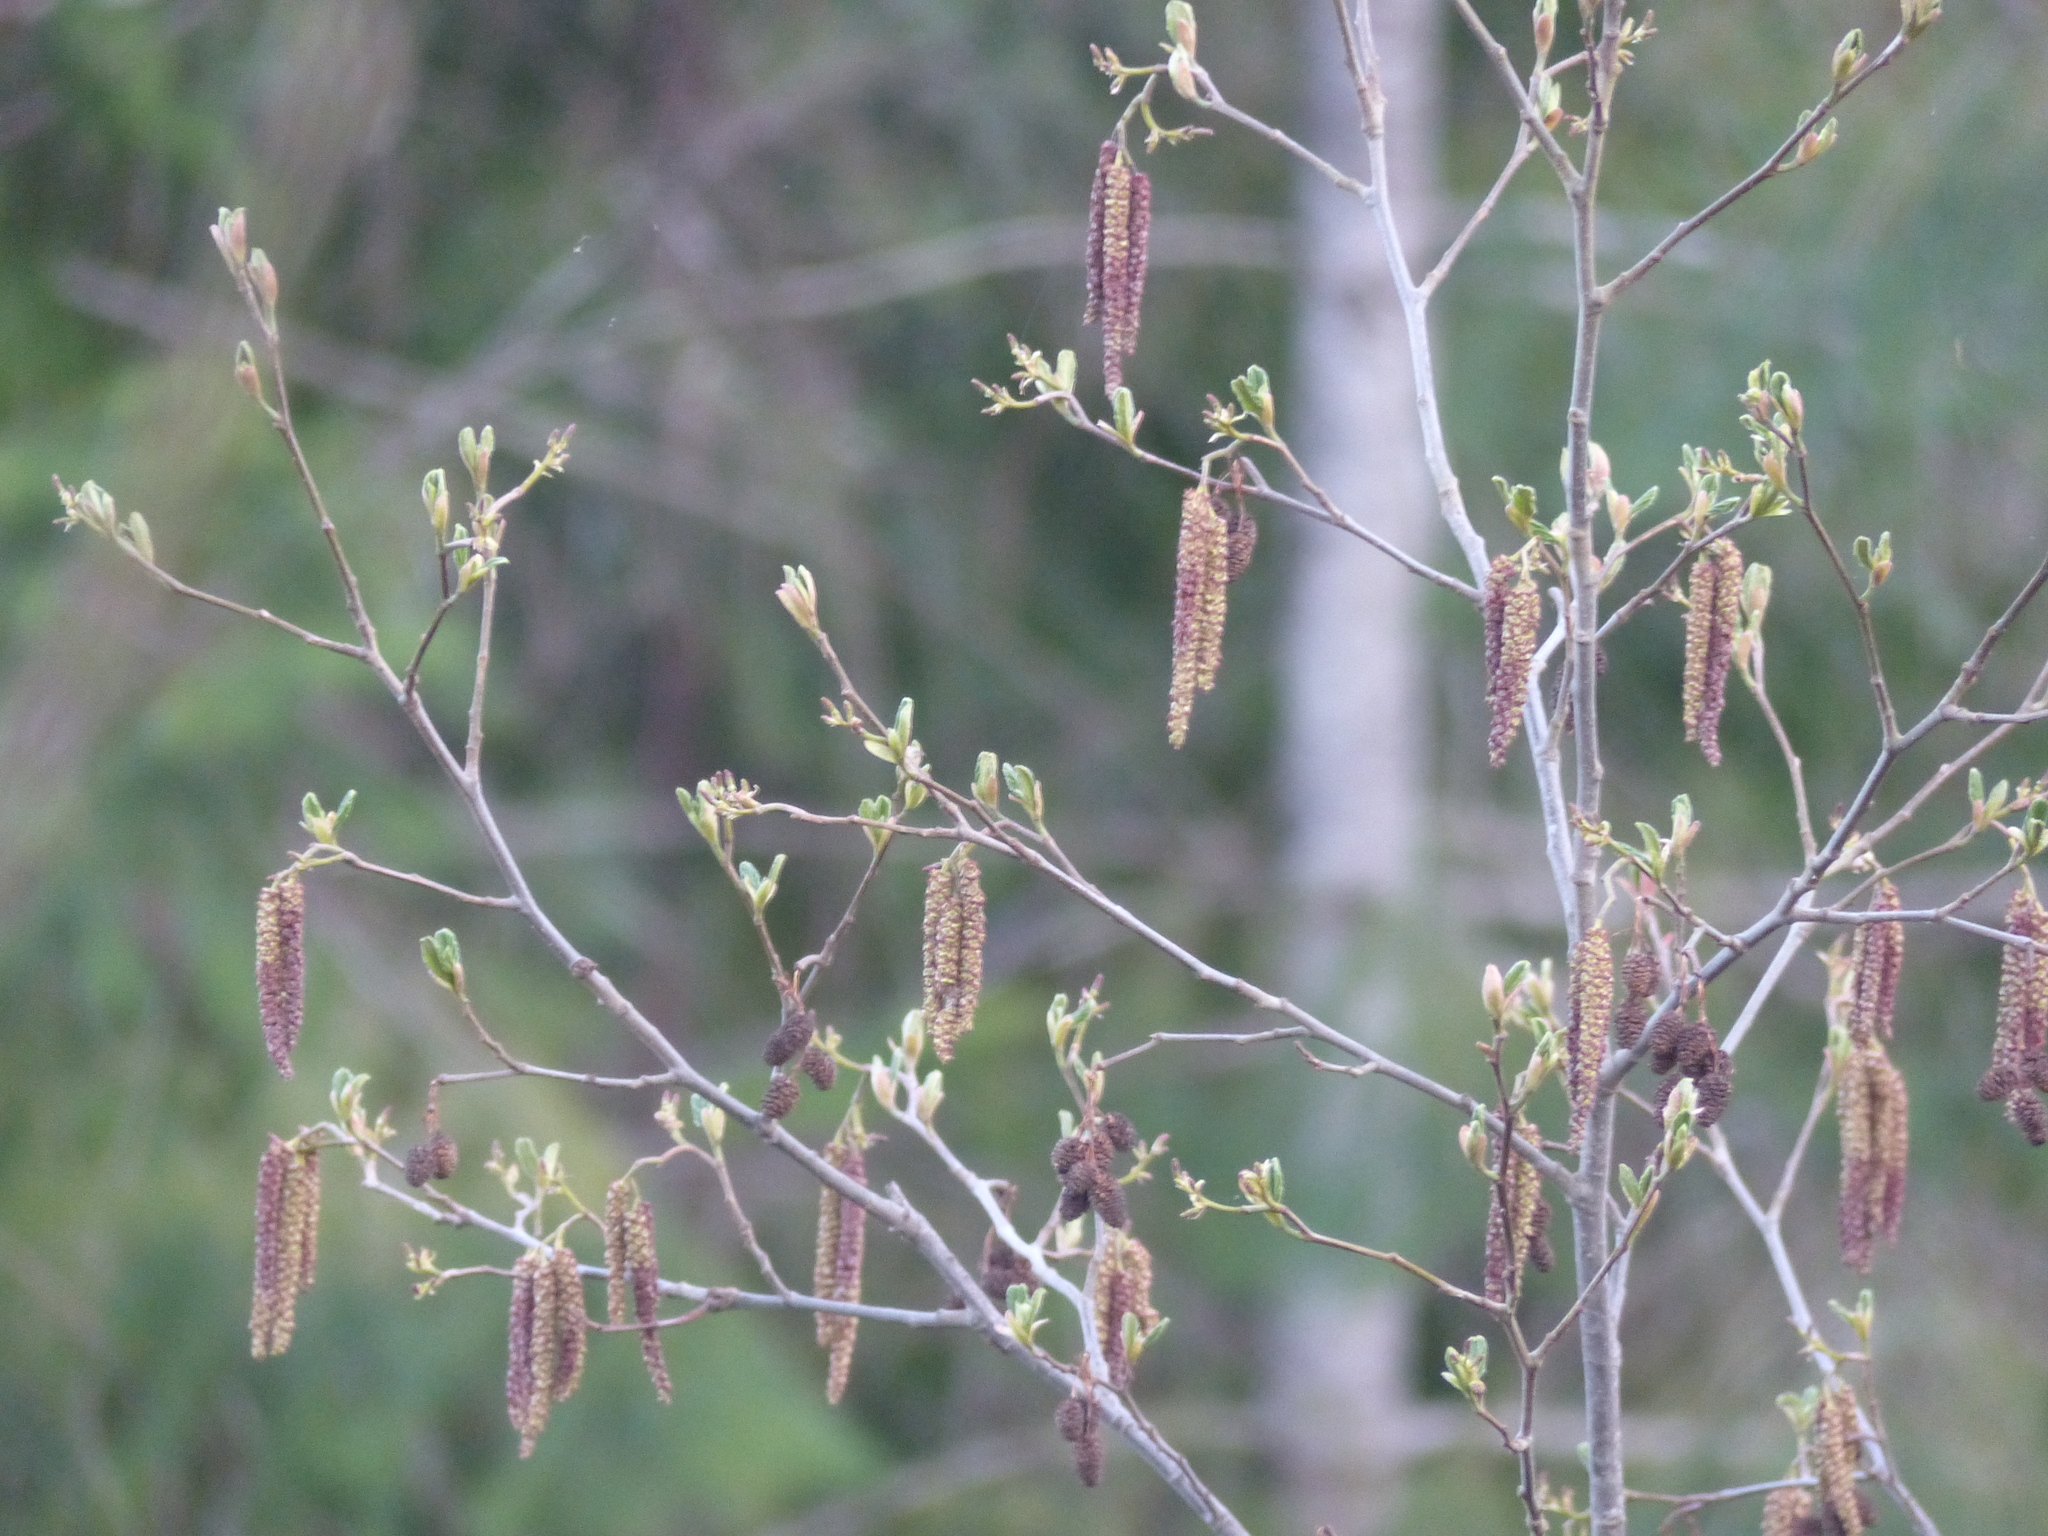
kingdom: Plantae
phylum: Tracheophyta
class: Magnoliopsida
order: Fagales
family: Betulaceae
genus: Alnus
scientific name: Alnus rubra
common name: Red alder
